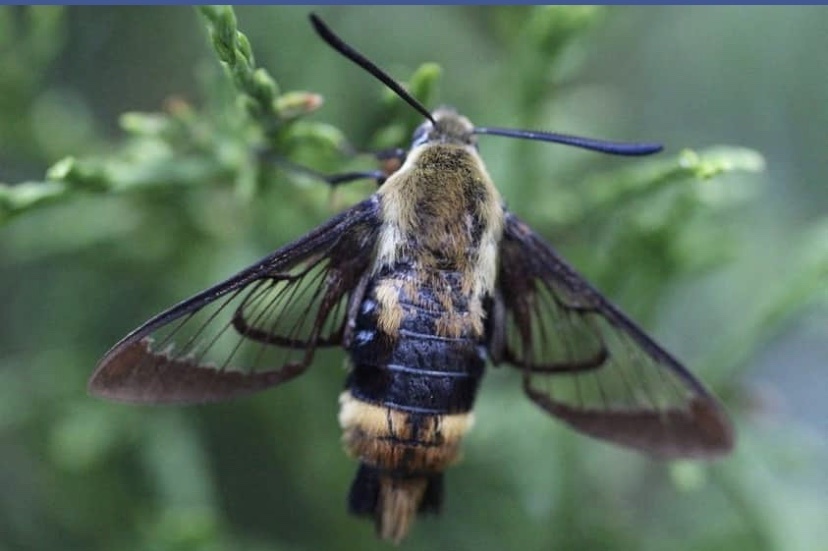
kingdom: Animalia
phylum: Arthropoda
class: Insecta
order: Lepidoptera
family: Sphingidae
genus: Hemaris
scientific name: Hemaris diffinis
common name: Bumblebee moth
